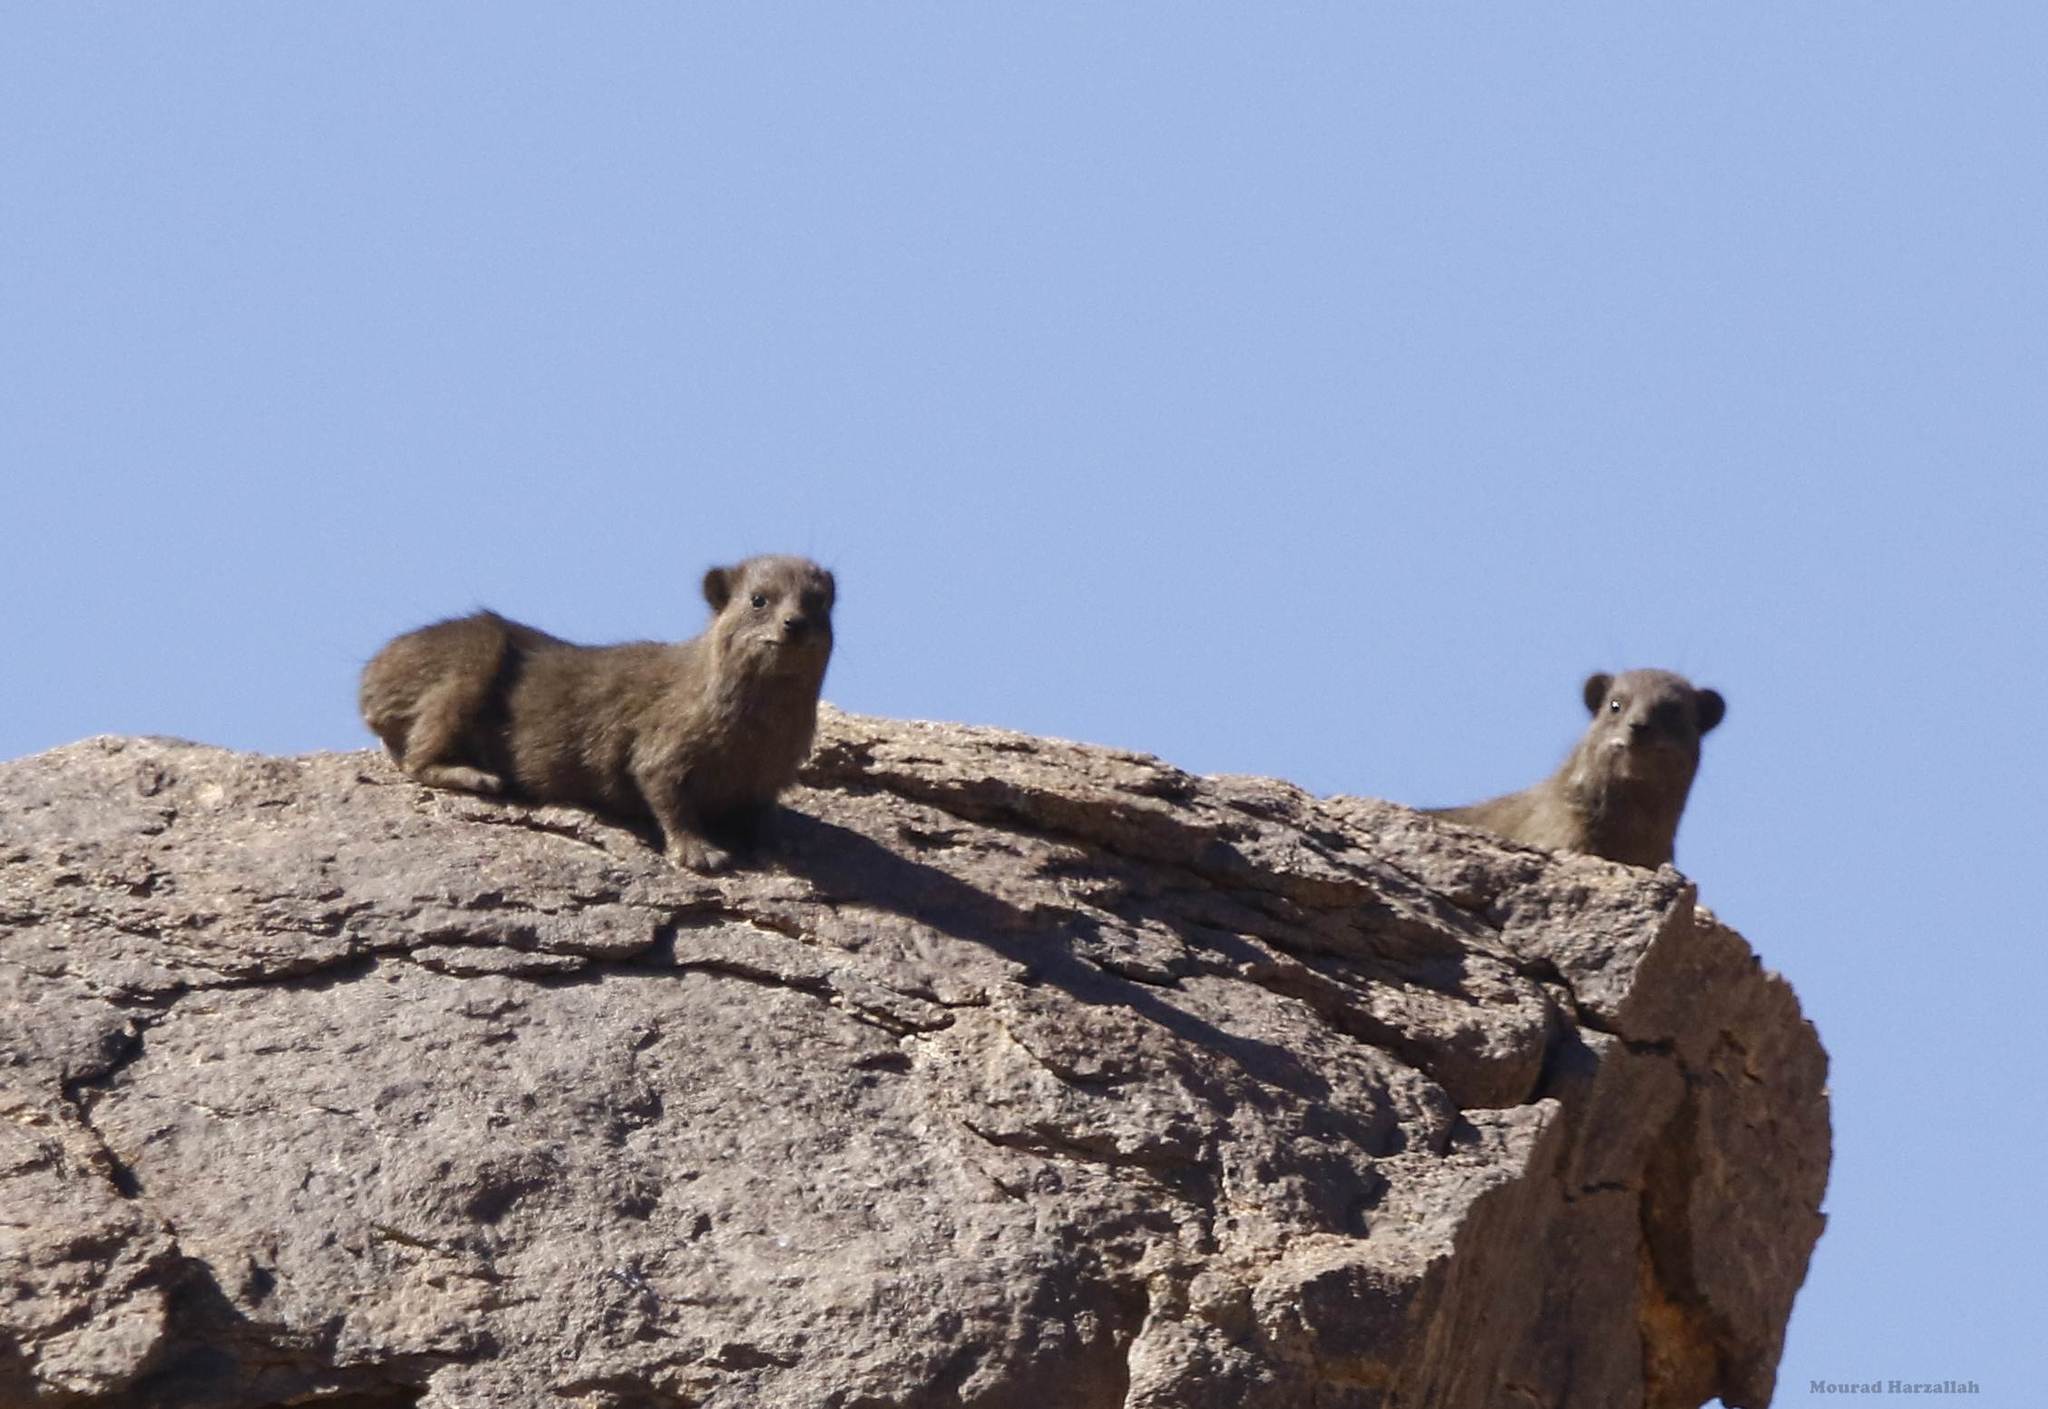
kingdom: Animalia
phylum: Chordata
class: Mammalia
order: Hyracoidea
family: Procaviidae
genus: Procavia
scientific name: Procavia capensis
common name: Rock hyrax
